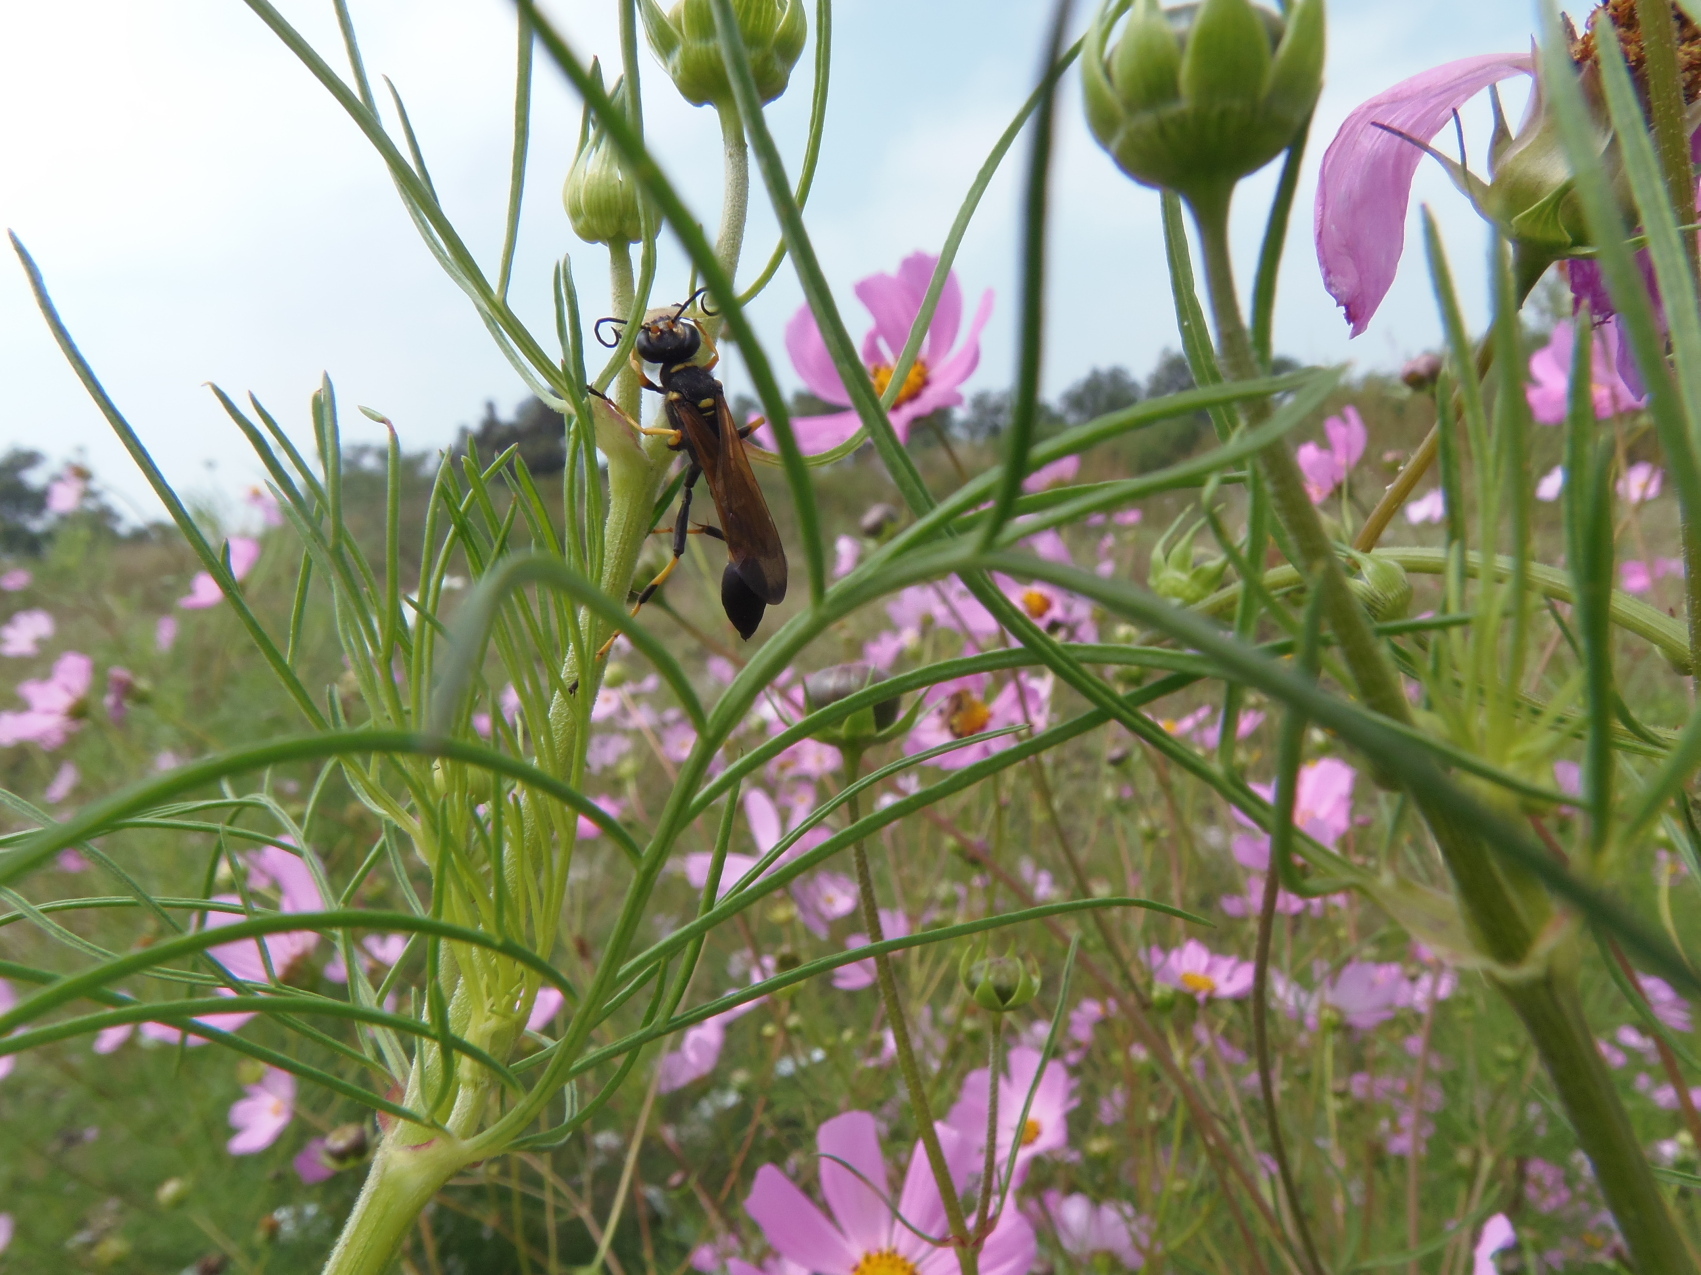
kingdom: Animalia
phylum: Arthropoda
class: Insecta
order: Hymenoptera
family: Sphecidae
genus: Sceliphron
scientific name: Sceliphron caementarium
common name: Mud dauber
